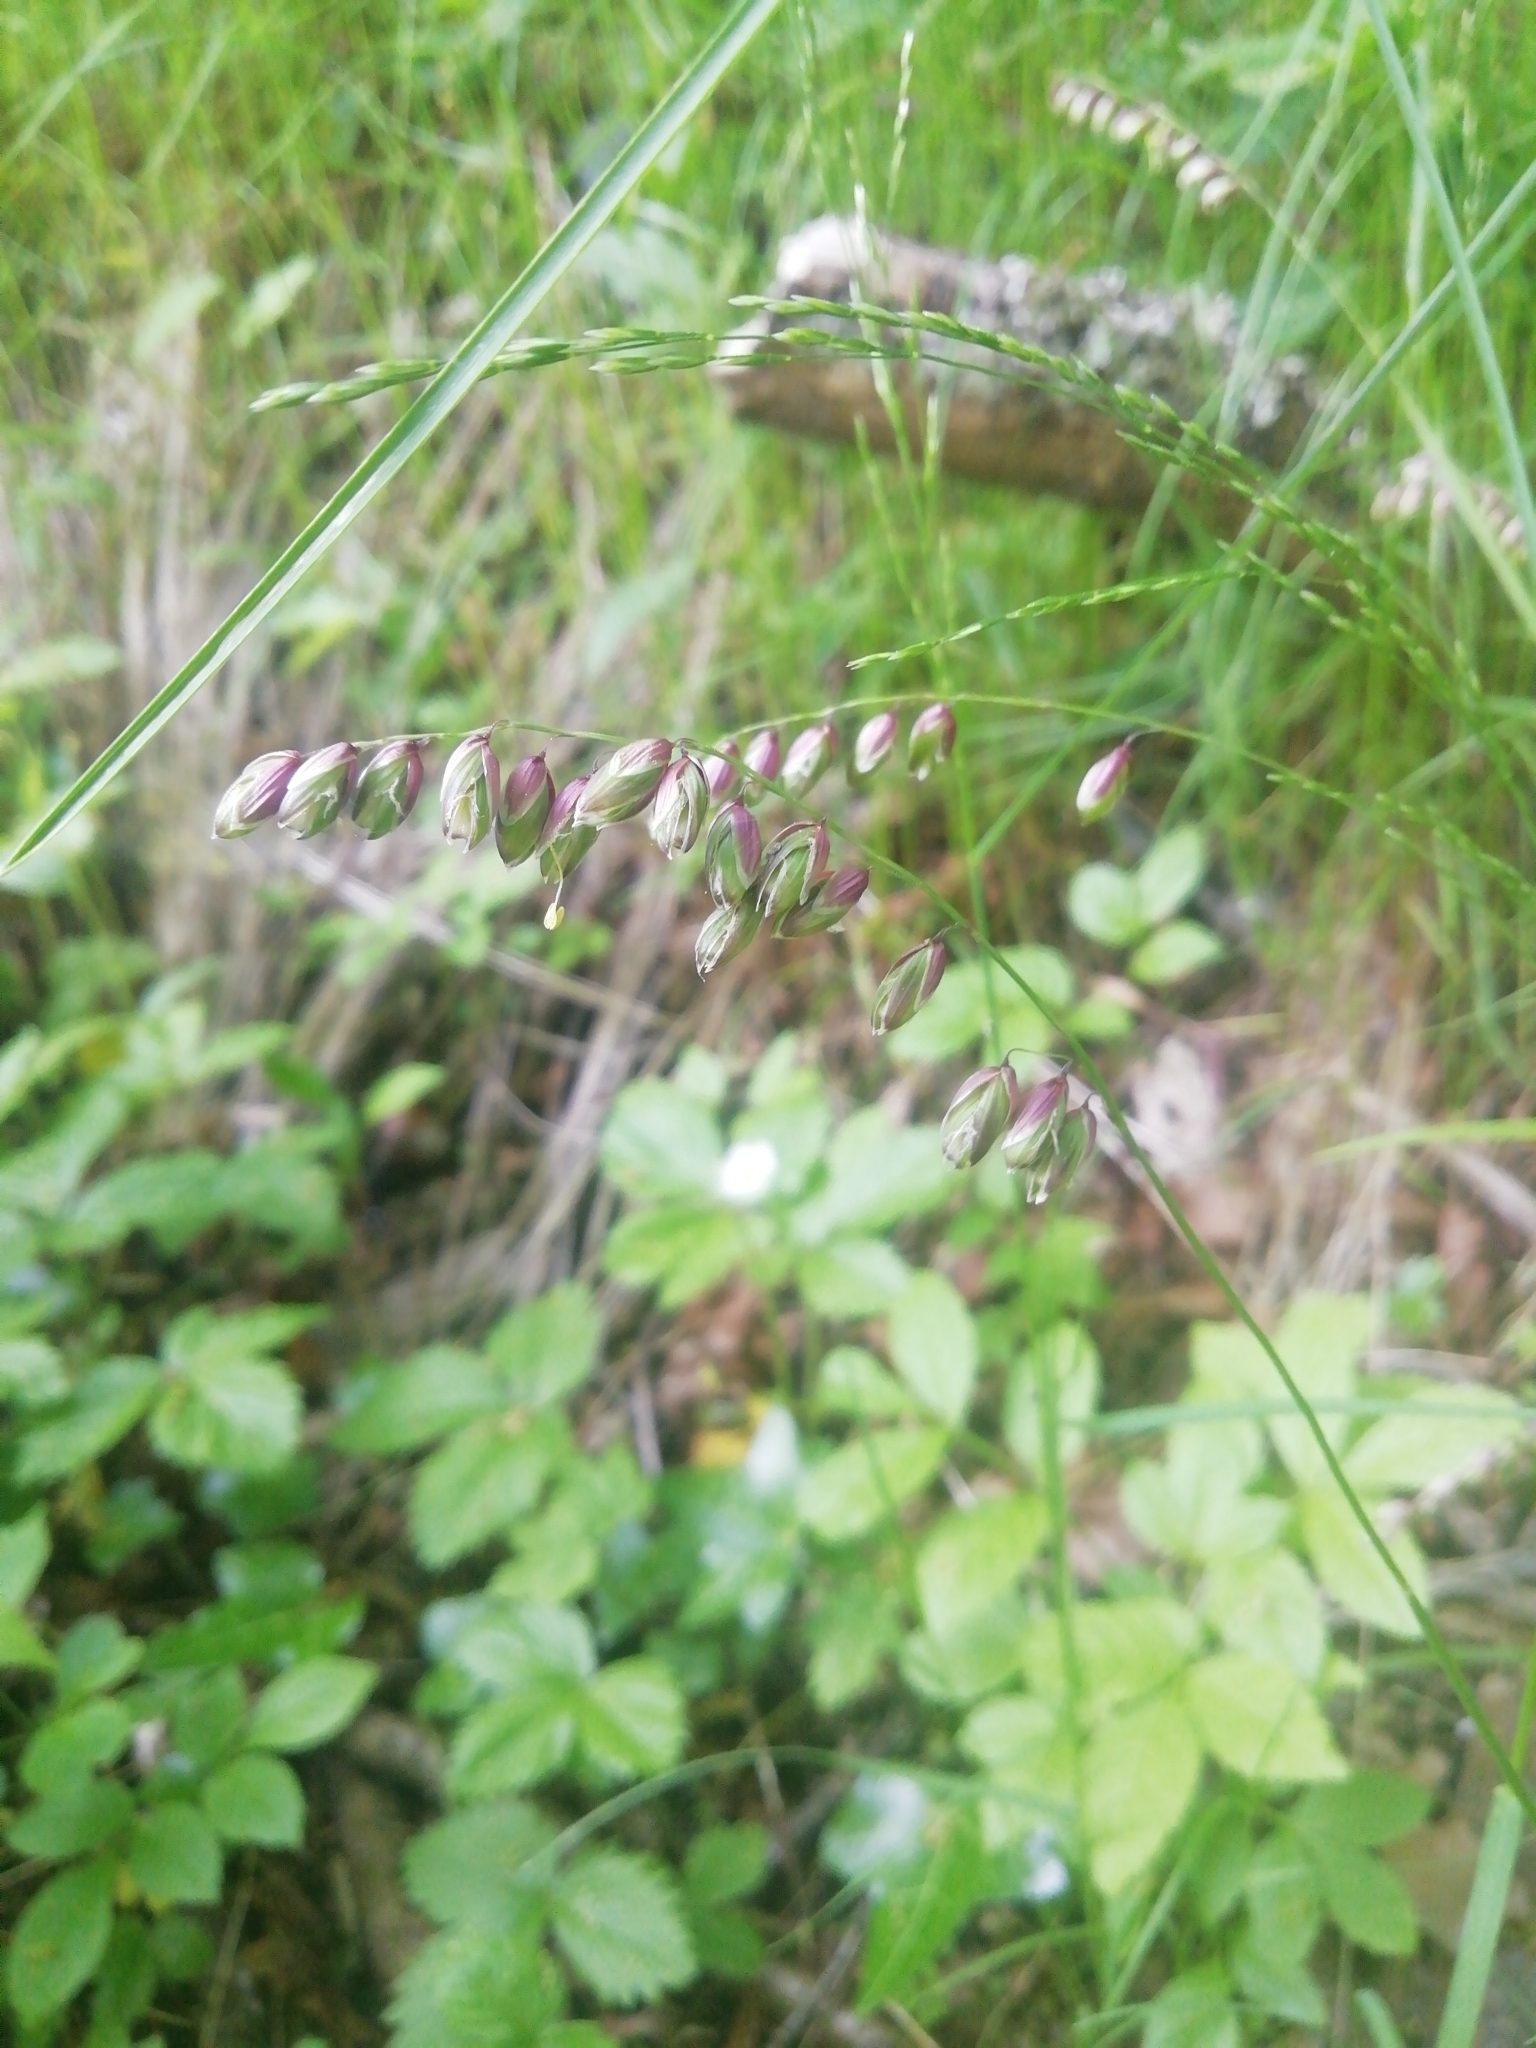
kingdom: Plantae
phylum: Tracheophyta
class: Liliopsida
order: Poales
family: Poaceae
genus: Melica
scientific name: Melica nutans
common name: Mountain melick
